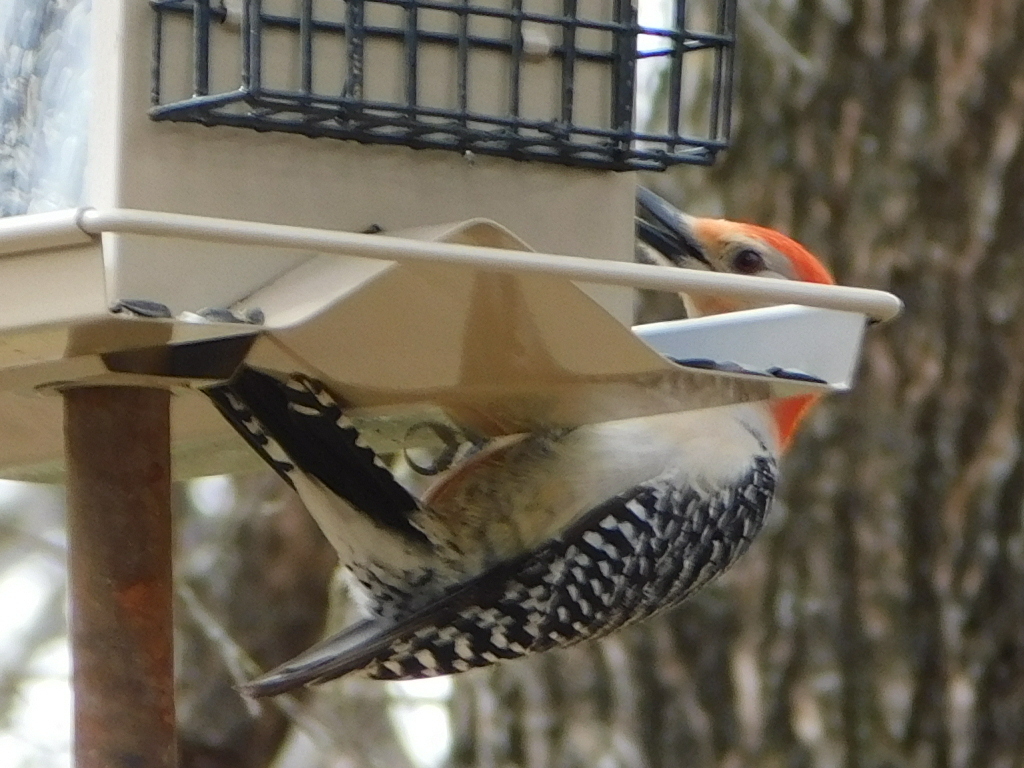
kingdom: Animalia
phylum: Chordata
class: Aves
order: Piciformes
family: Picidae
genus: Melanerpes
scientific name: Melanerpes carolinus
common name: Red-bellied woodpecker
